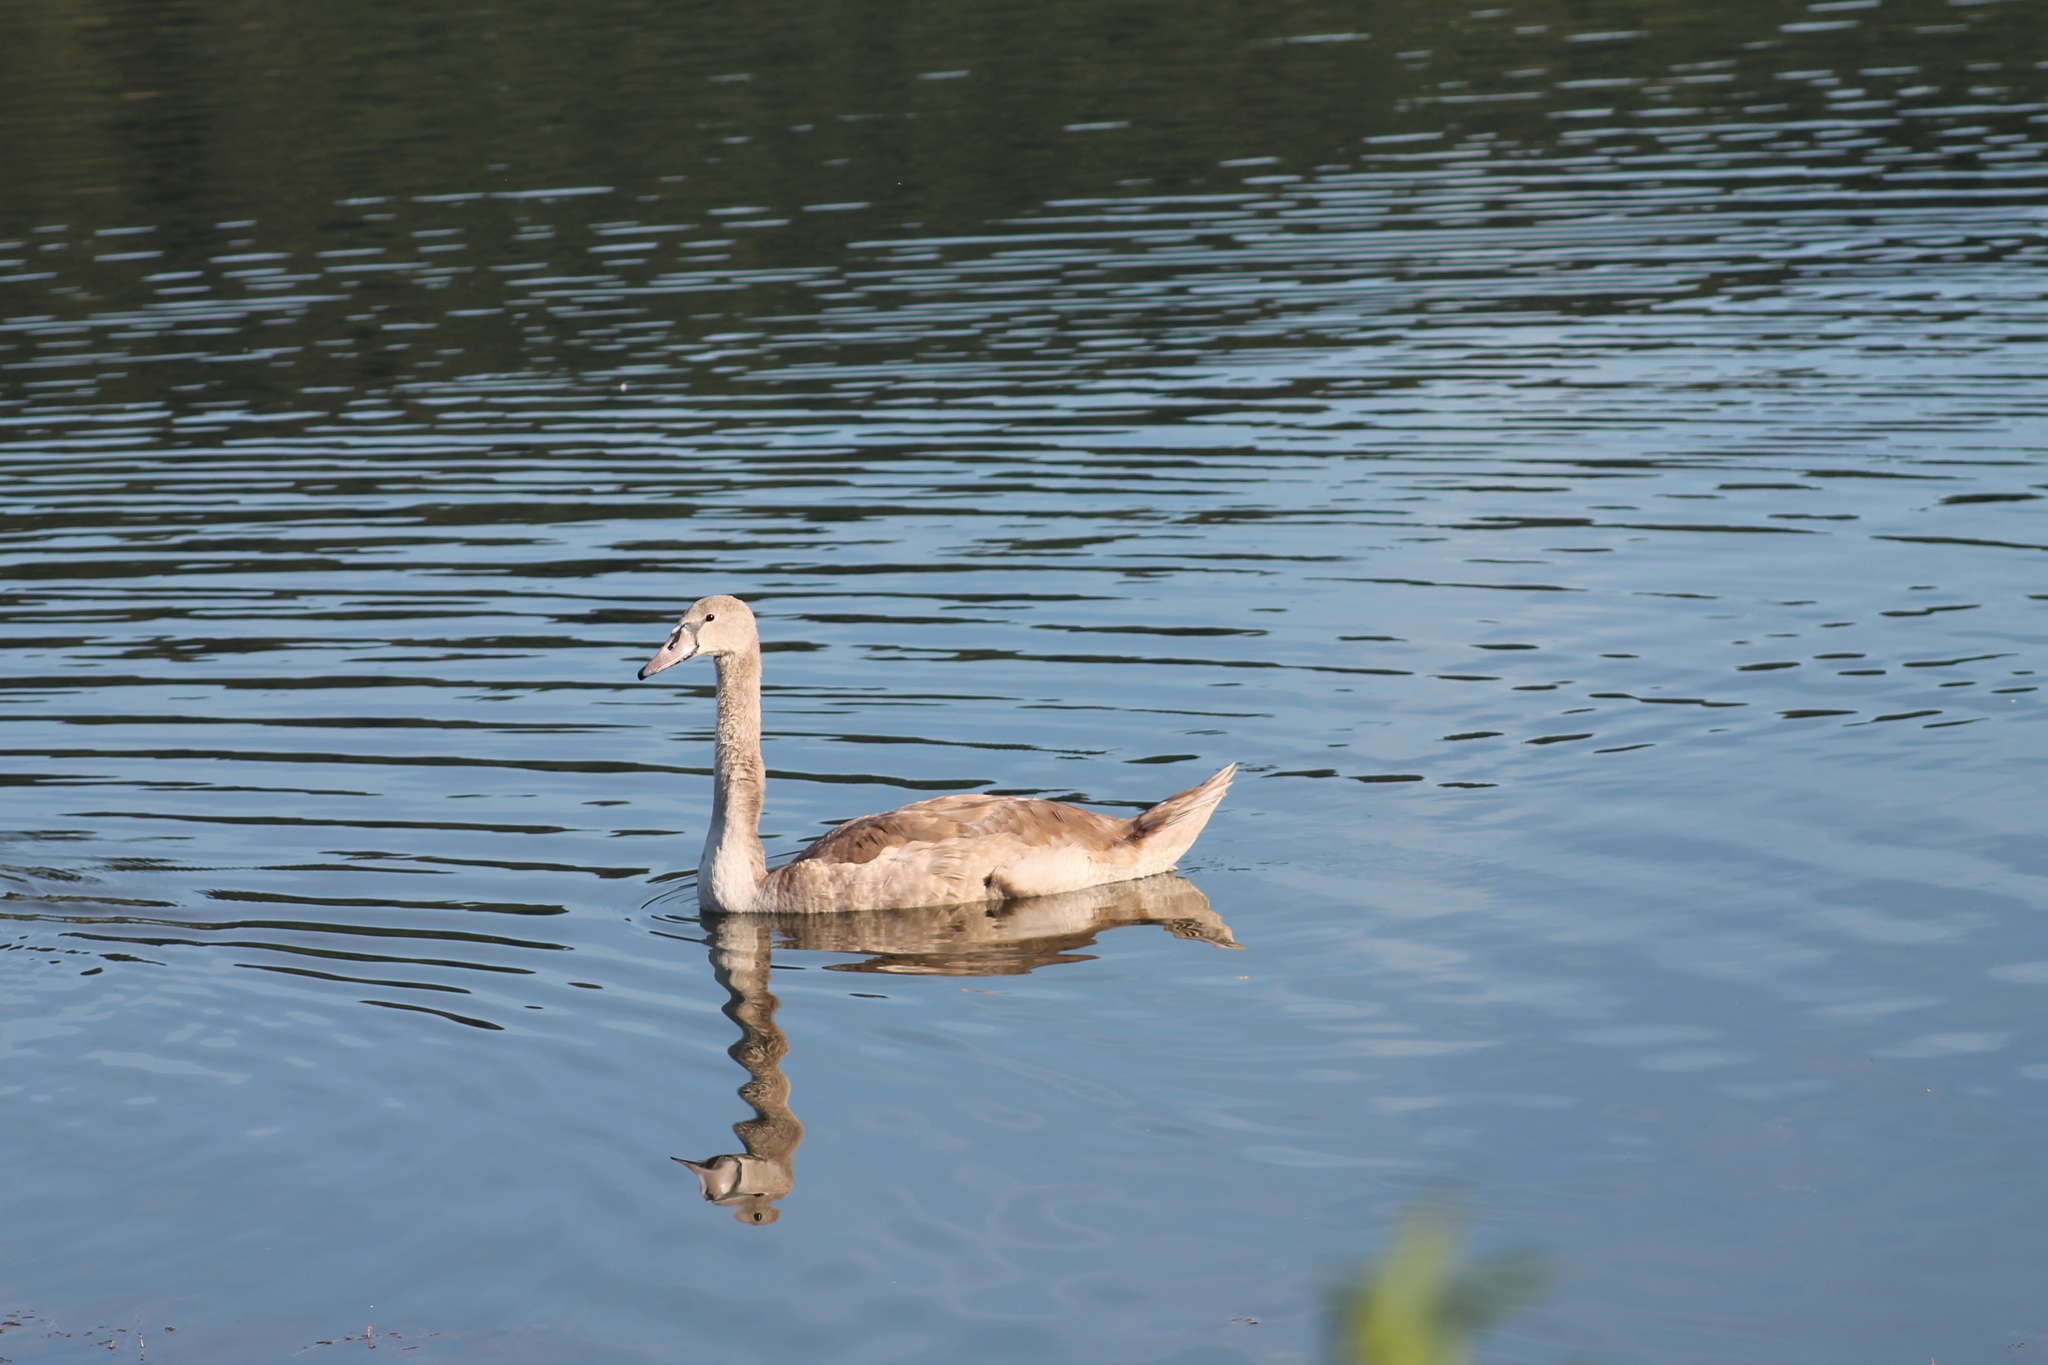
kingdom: Animalia
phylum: Chordata
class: Aves
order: Anseriformes
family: Anatidae
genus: Cygnus
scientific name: Cygnus olor
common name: Mute swan
